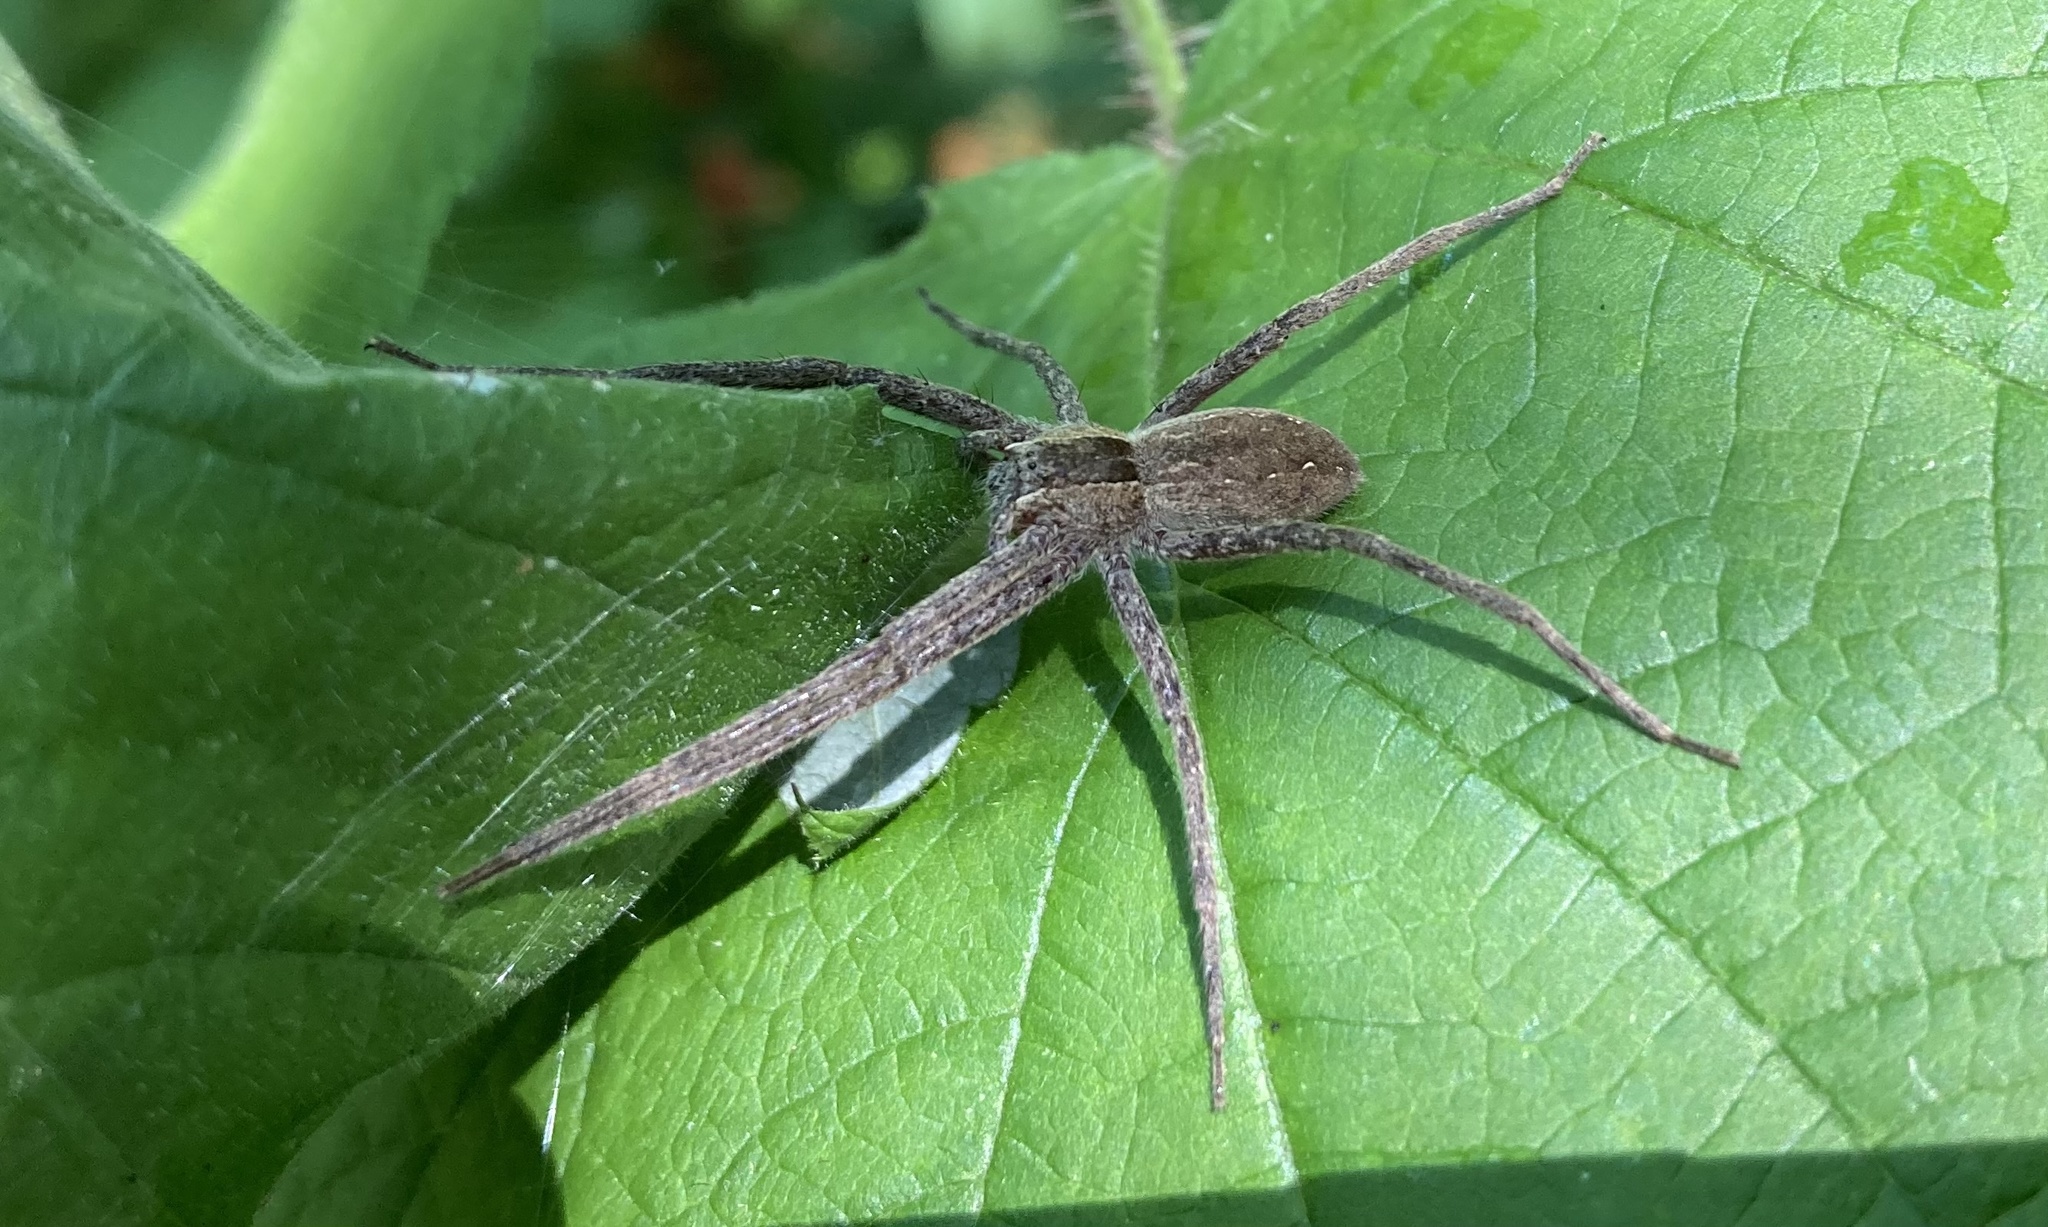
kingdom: Animalia
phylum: Arthropoda
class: Arachnida
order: Araneae
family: Pisauridae
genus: Pisaurina
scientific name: Pisaurina mira
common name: American nursery web spider
